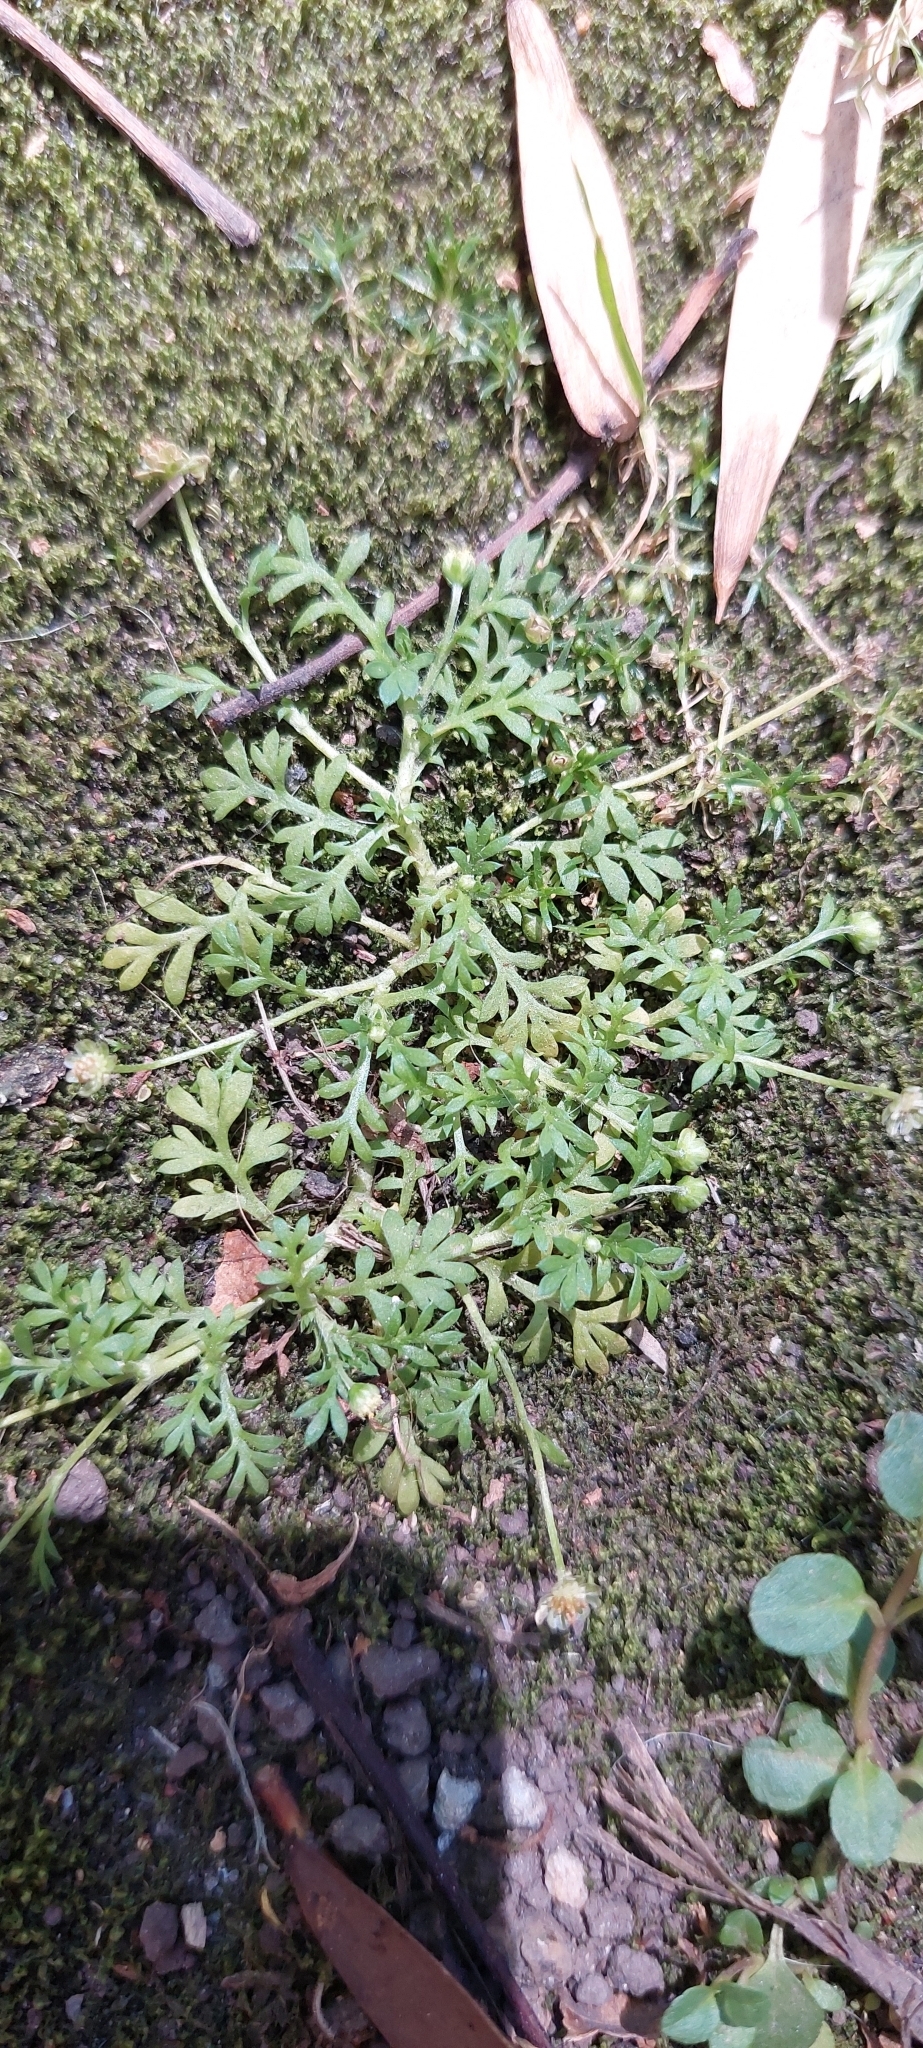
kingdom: Plantae
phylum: Tracheophyta
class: Magnoliopsida
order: Asterales
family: Asteraceae
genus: Cotula
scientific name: Cotula australis
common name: Australian waterbuttons
